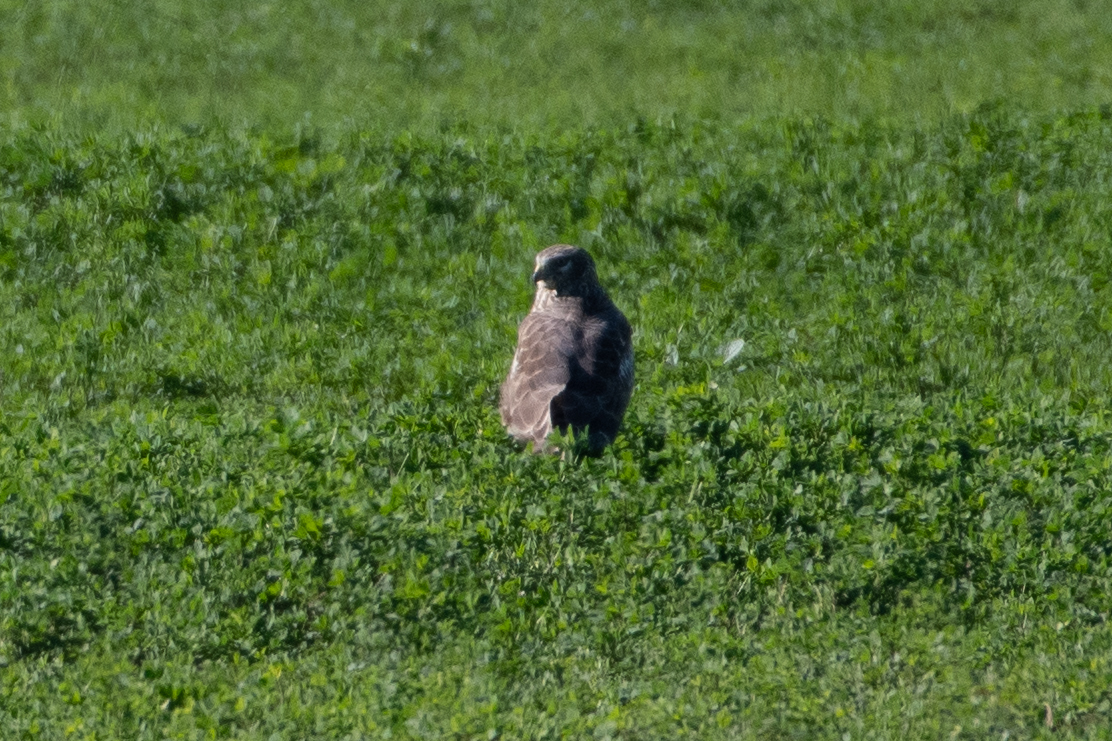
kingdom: Animalia
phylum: Chordata
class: Aves
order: Accipitriformes
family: Accipitridae
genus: Circus
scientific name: Circus cyaneus
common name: Hen harrier
